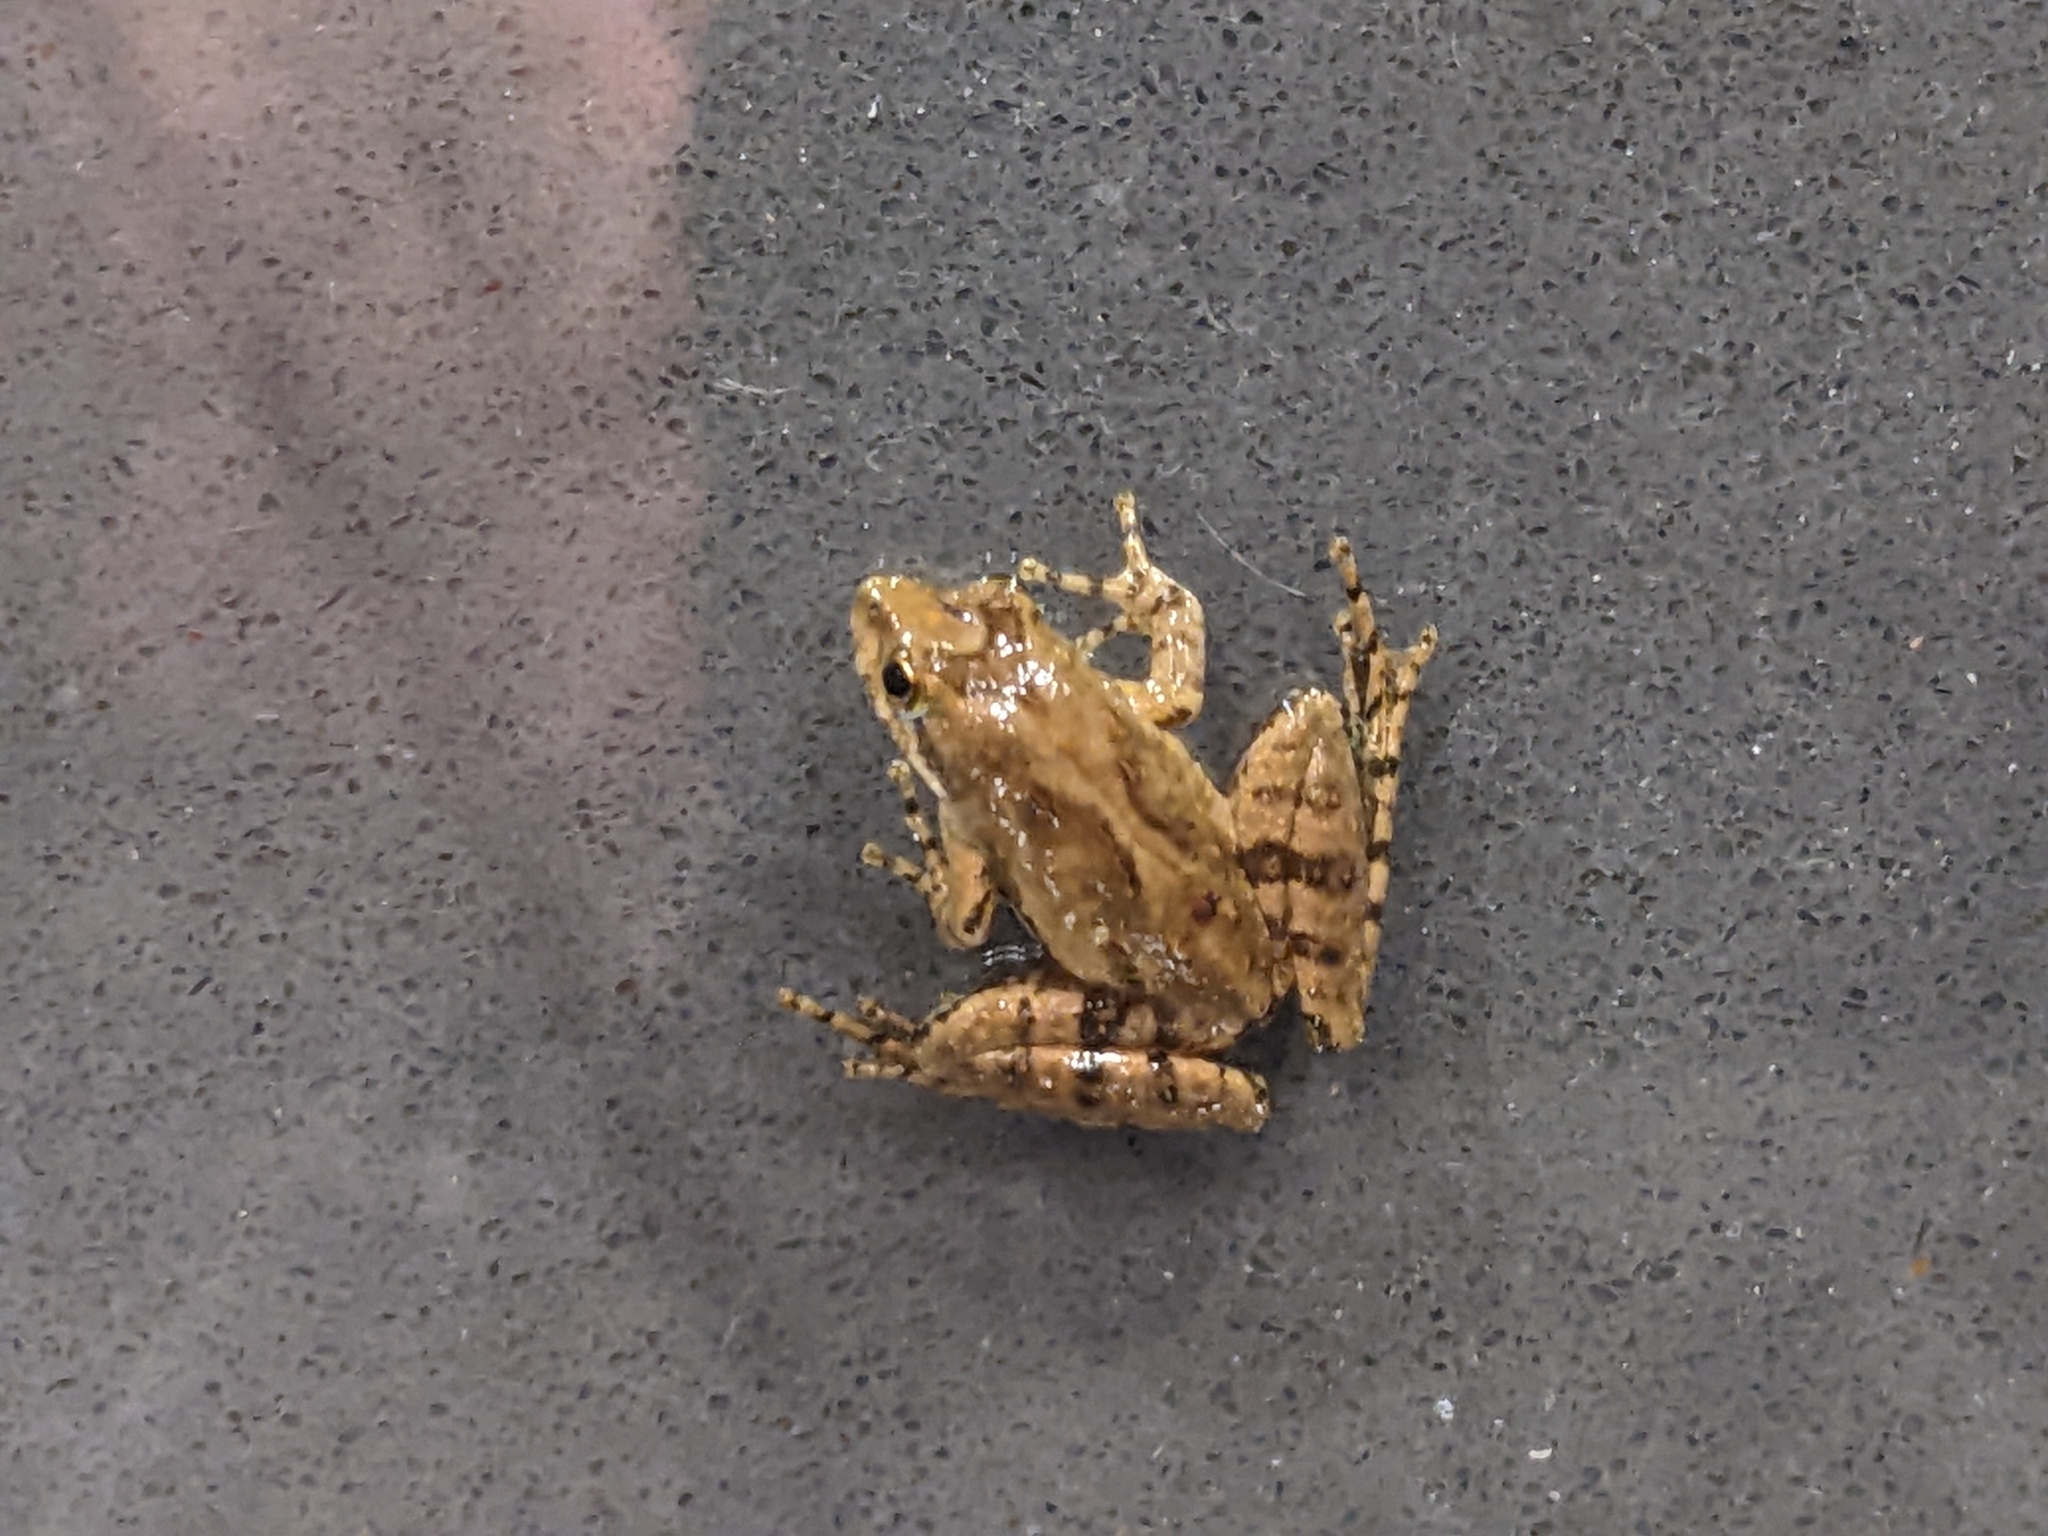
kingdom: Animalia
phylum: Chordata
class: Amphibia
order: Anura
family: Hylidae
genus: Acris
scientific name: Acris gryllus
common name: Southern cricket frog
